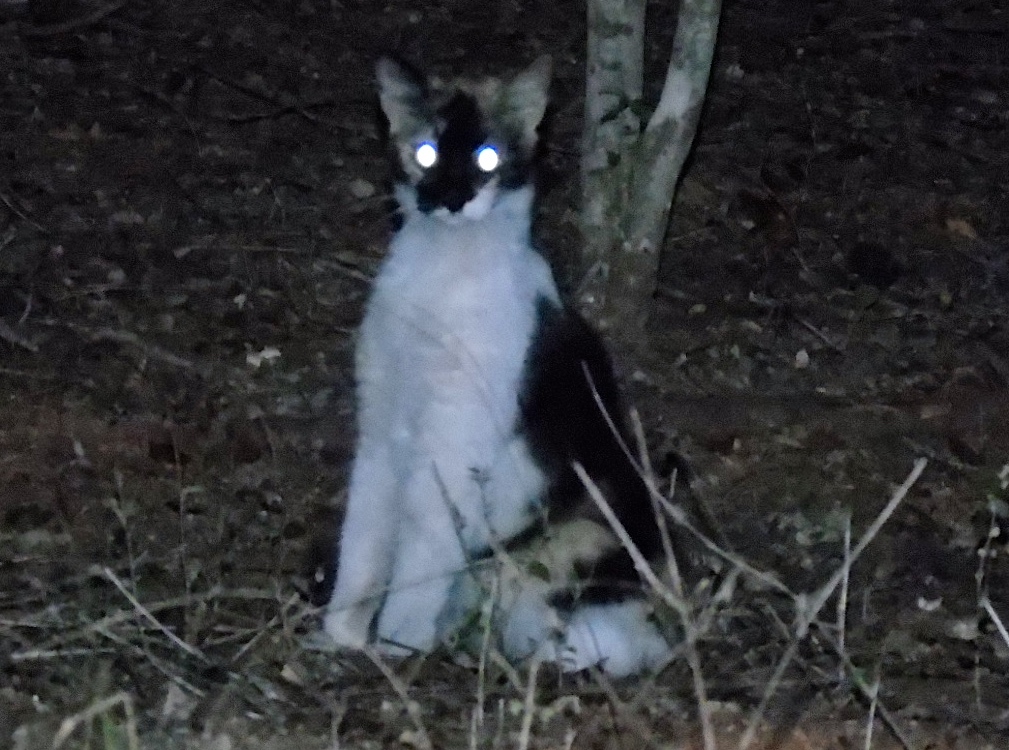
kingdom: Animalia
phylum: Chordata
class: Mammalia
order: Carnivora
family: Felidae
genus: Felis
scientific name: Felis catus
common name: Domestic cat
